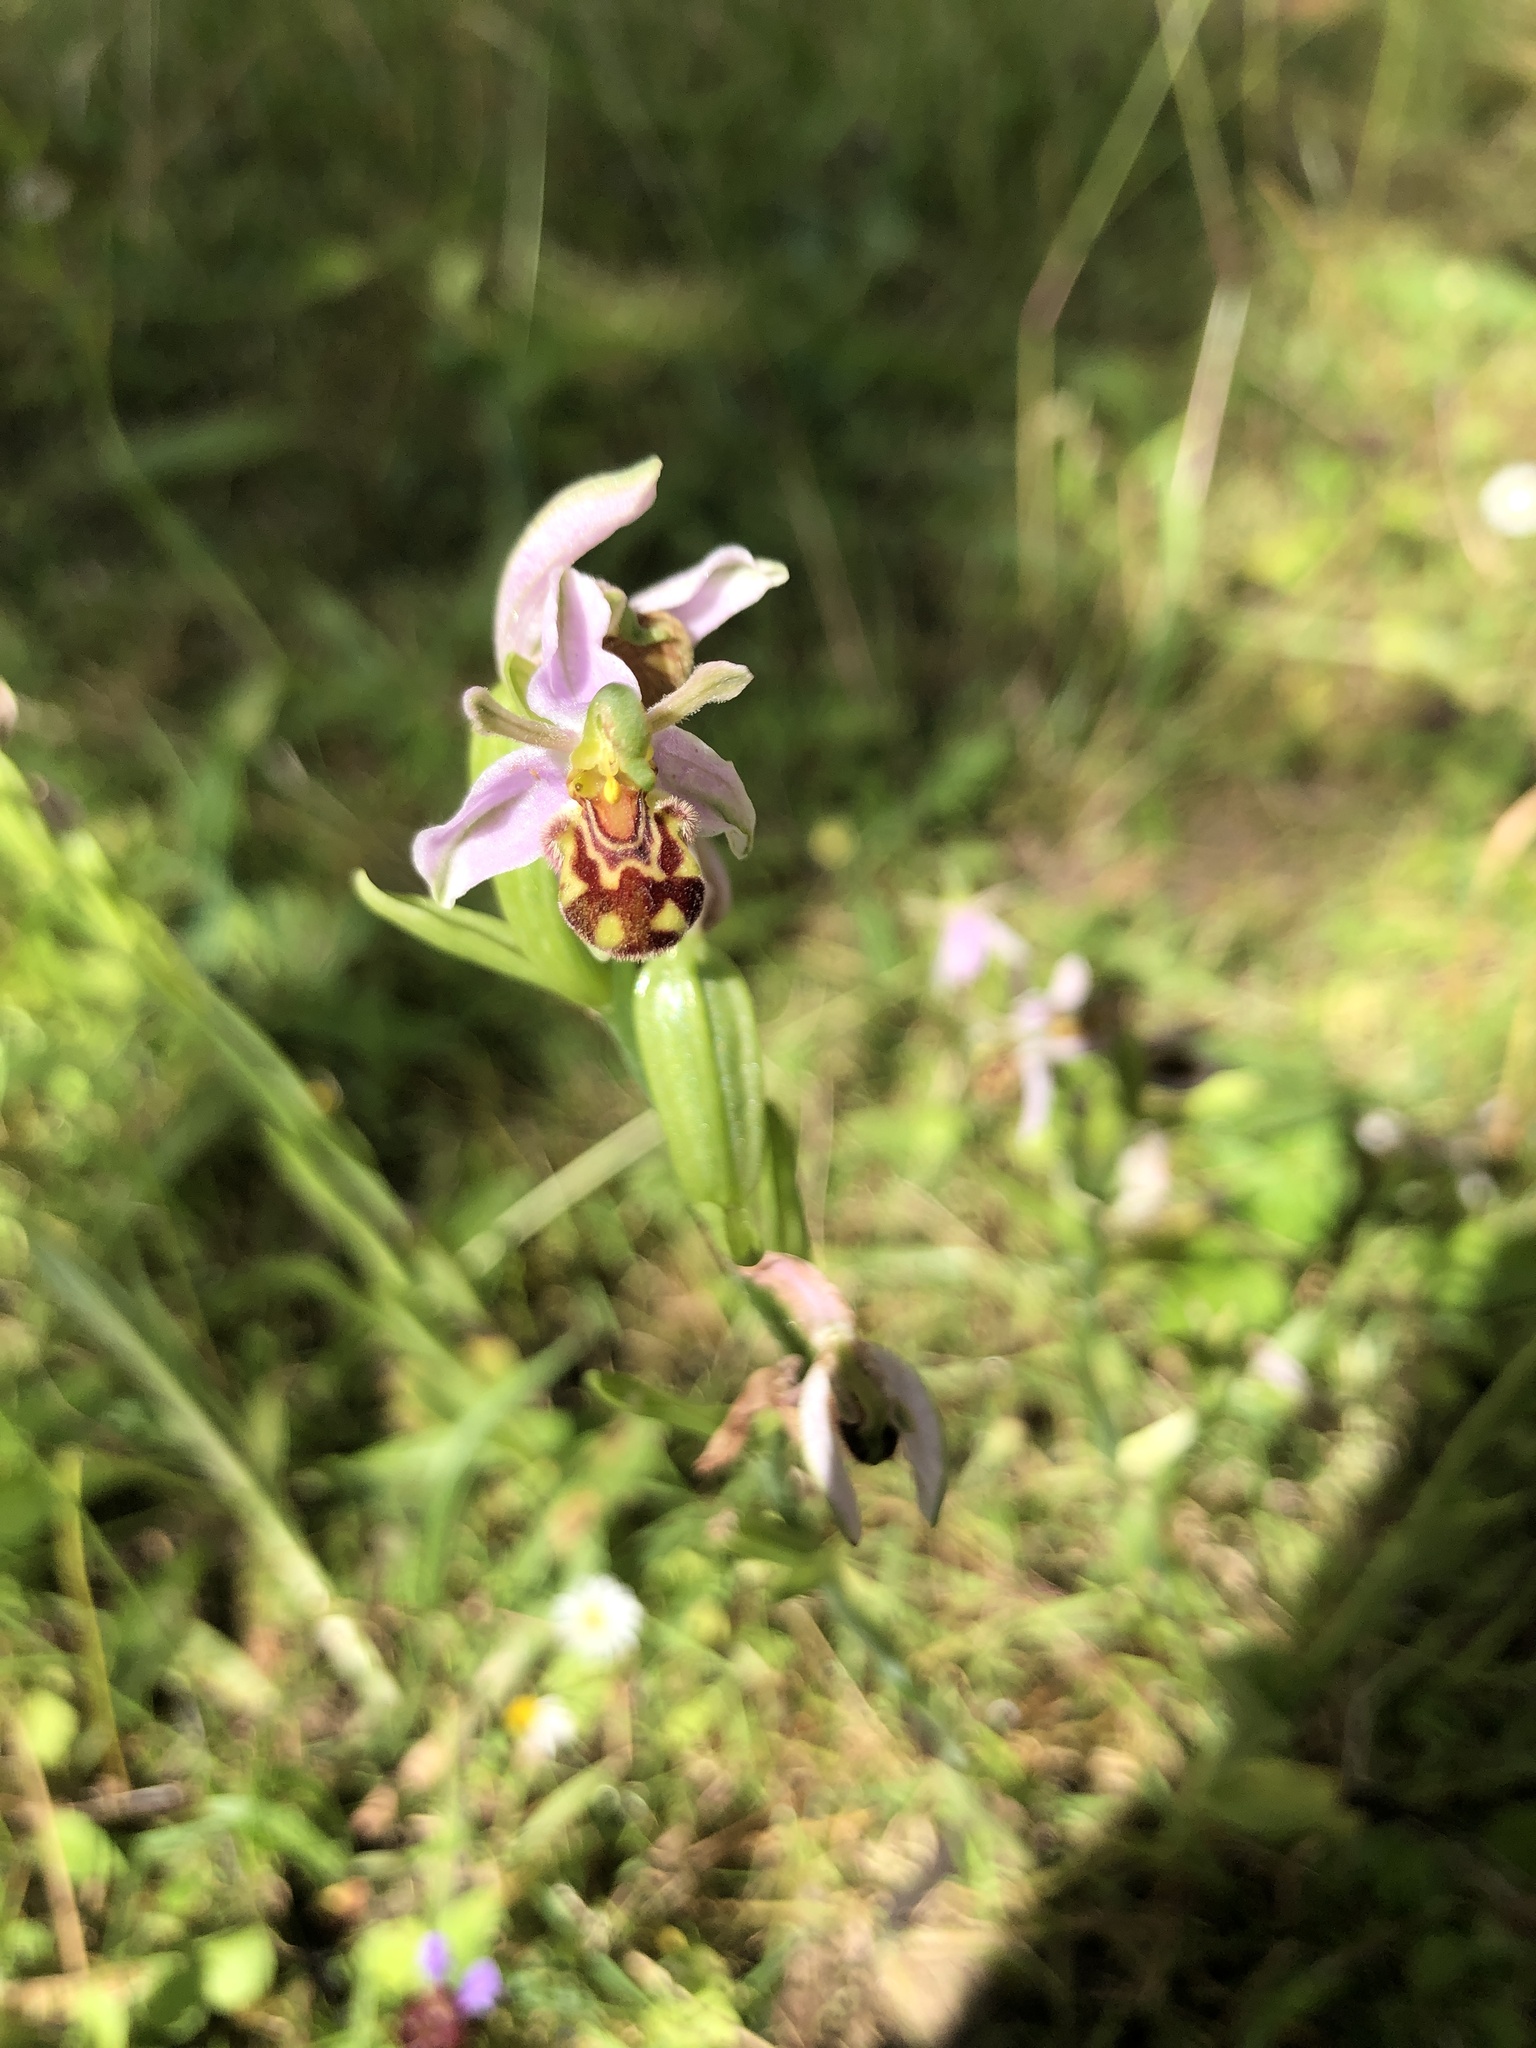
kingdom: Plantae
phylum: Tracheophyta
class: Liliopsida
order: Asparagales
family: Orchidaceae
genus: Ophrys
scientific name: Ophrys apifera
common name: Bee orchid
